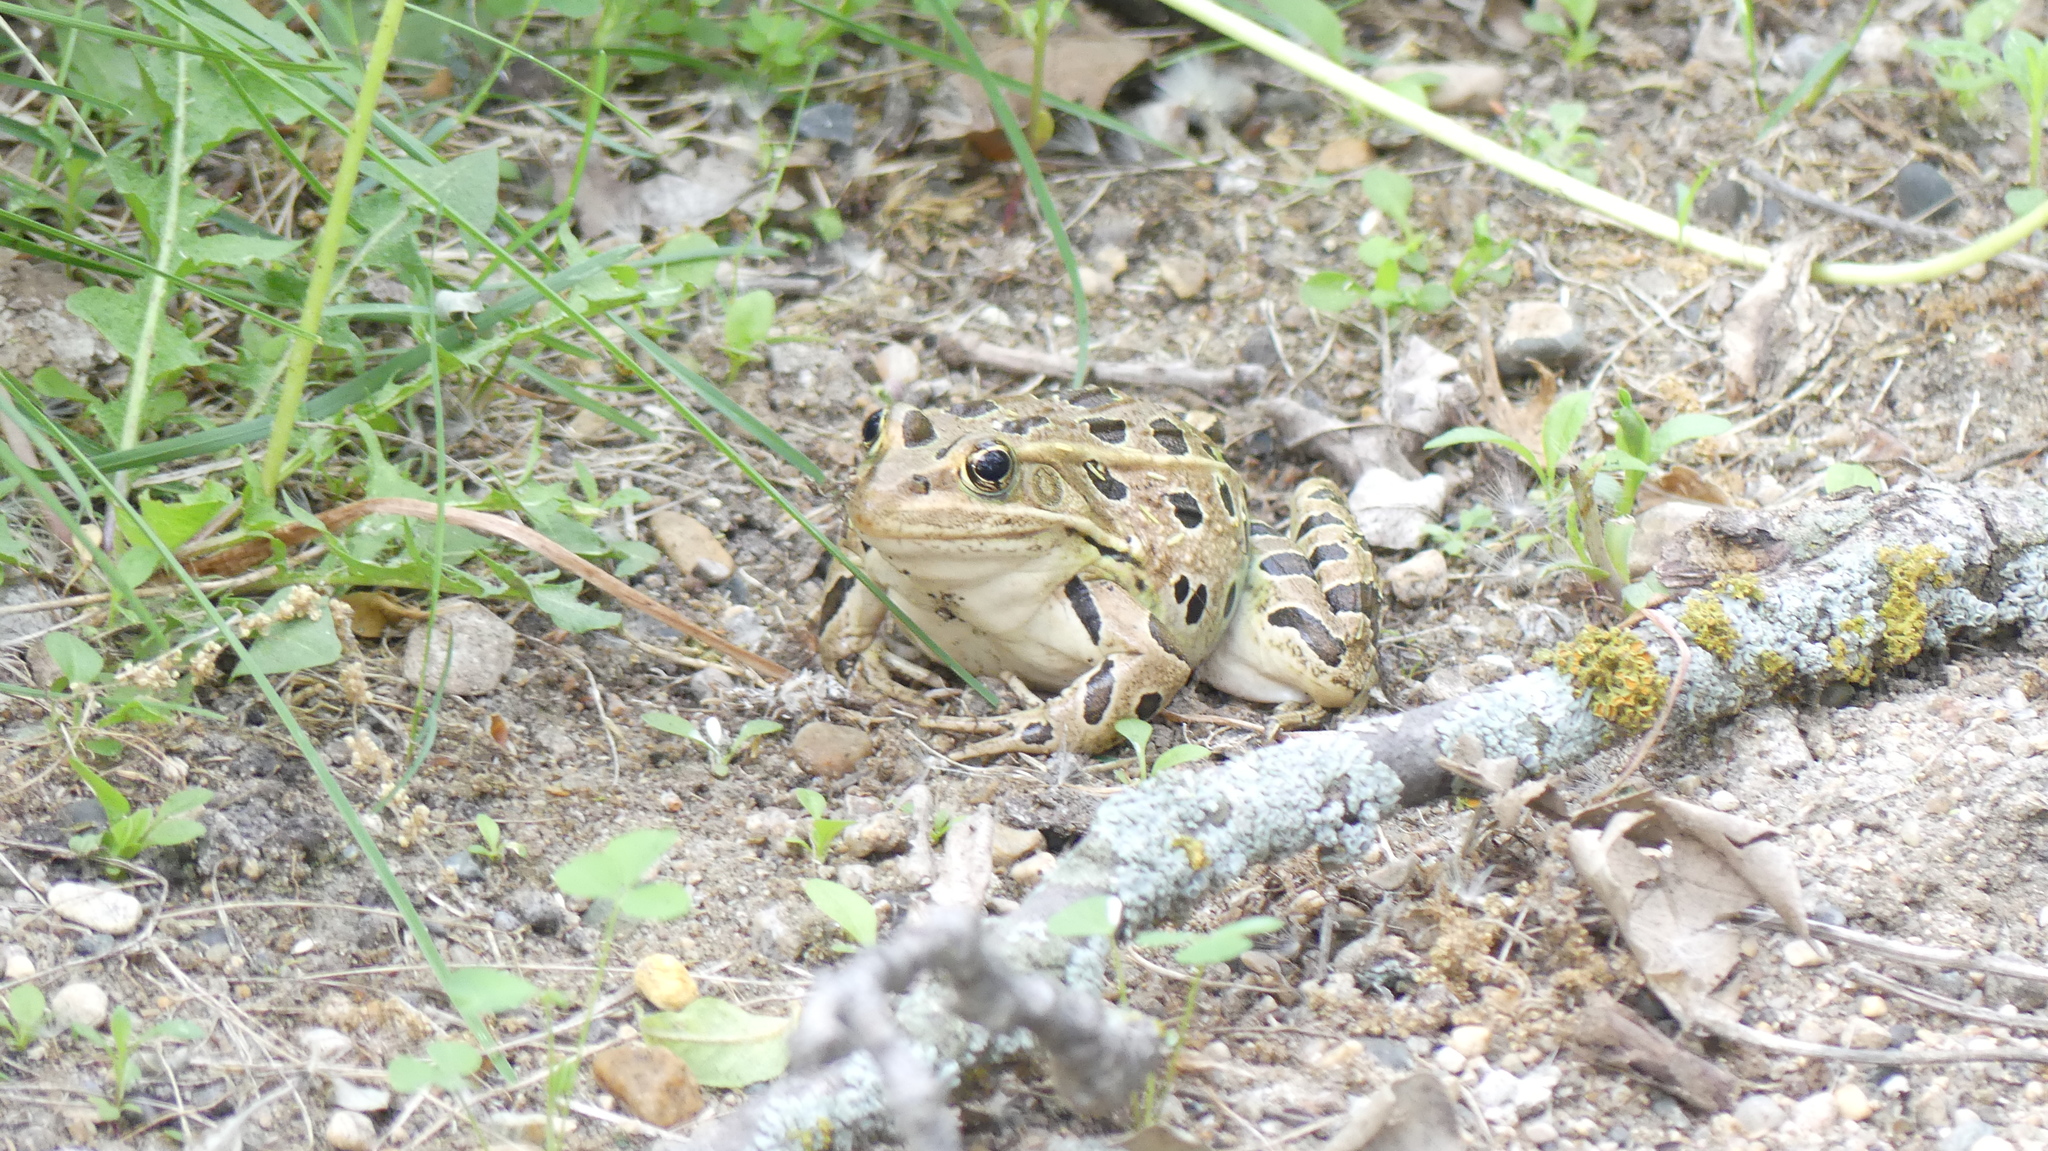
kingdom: Animalia
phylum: Chordata
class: Amphibia
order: Anura
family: Ranidae
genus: Lithobates
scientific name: Lithobates pipiens
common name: Northern leopard frog
